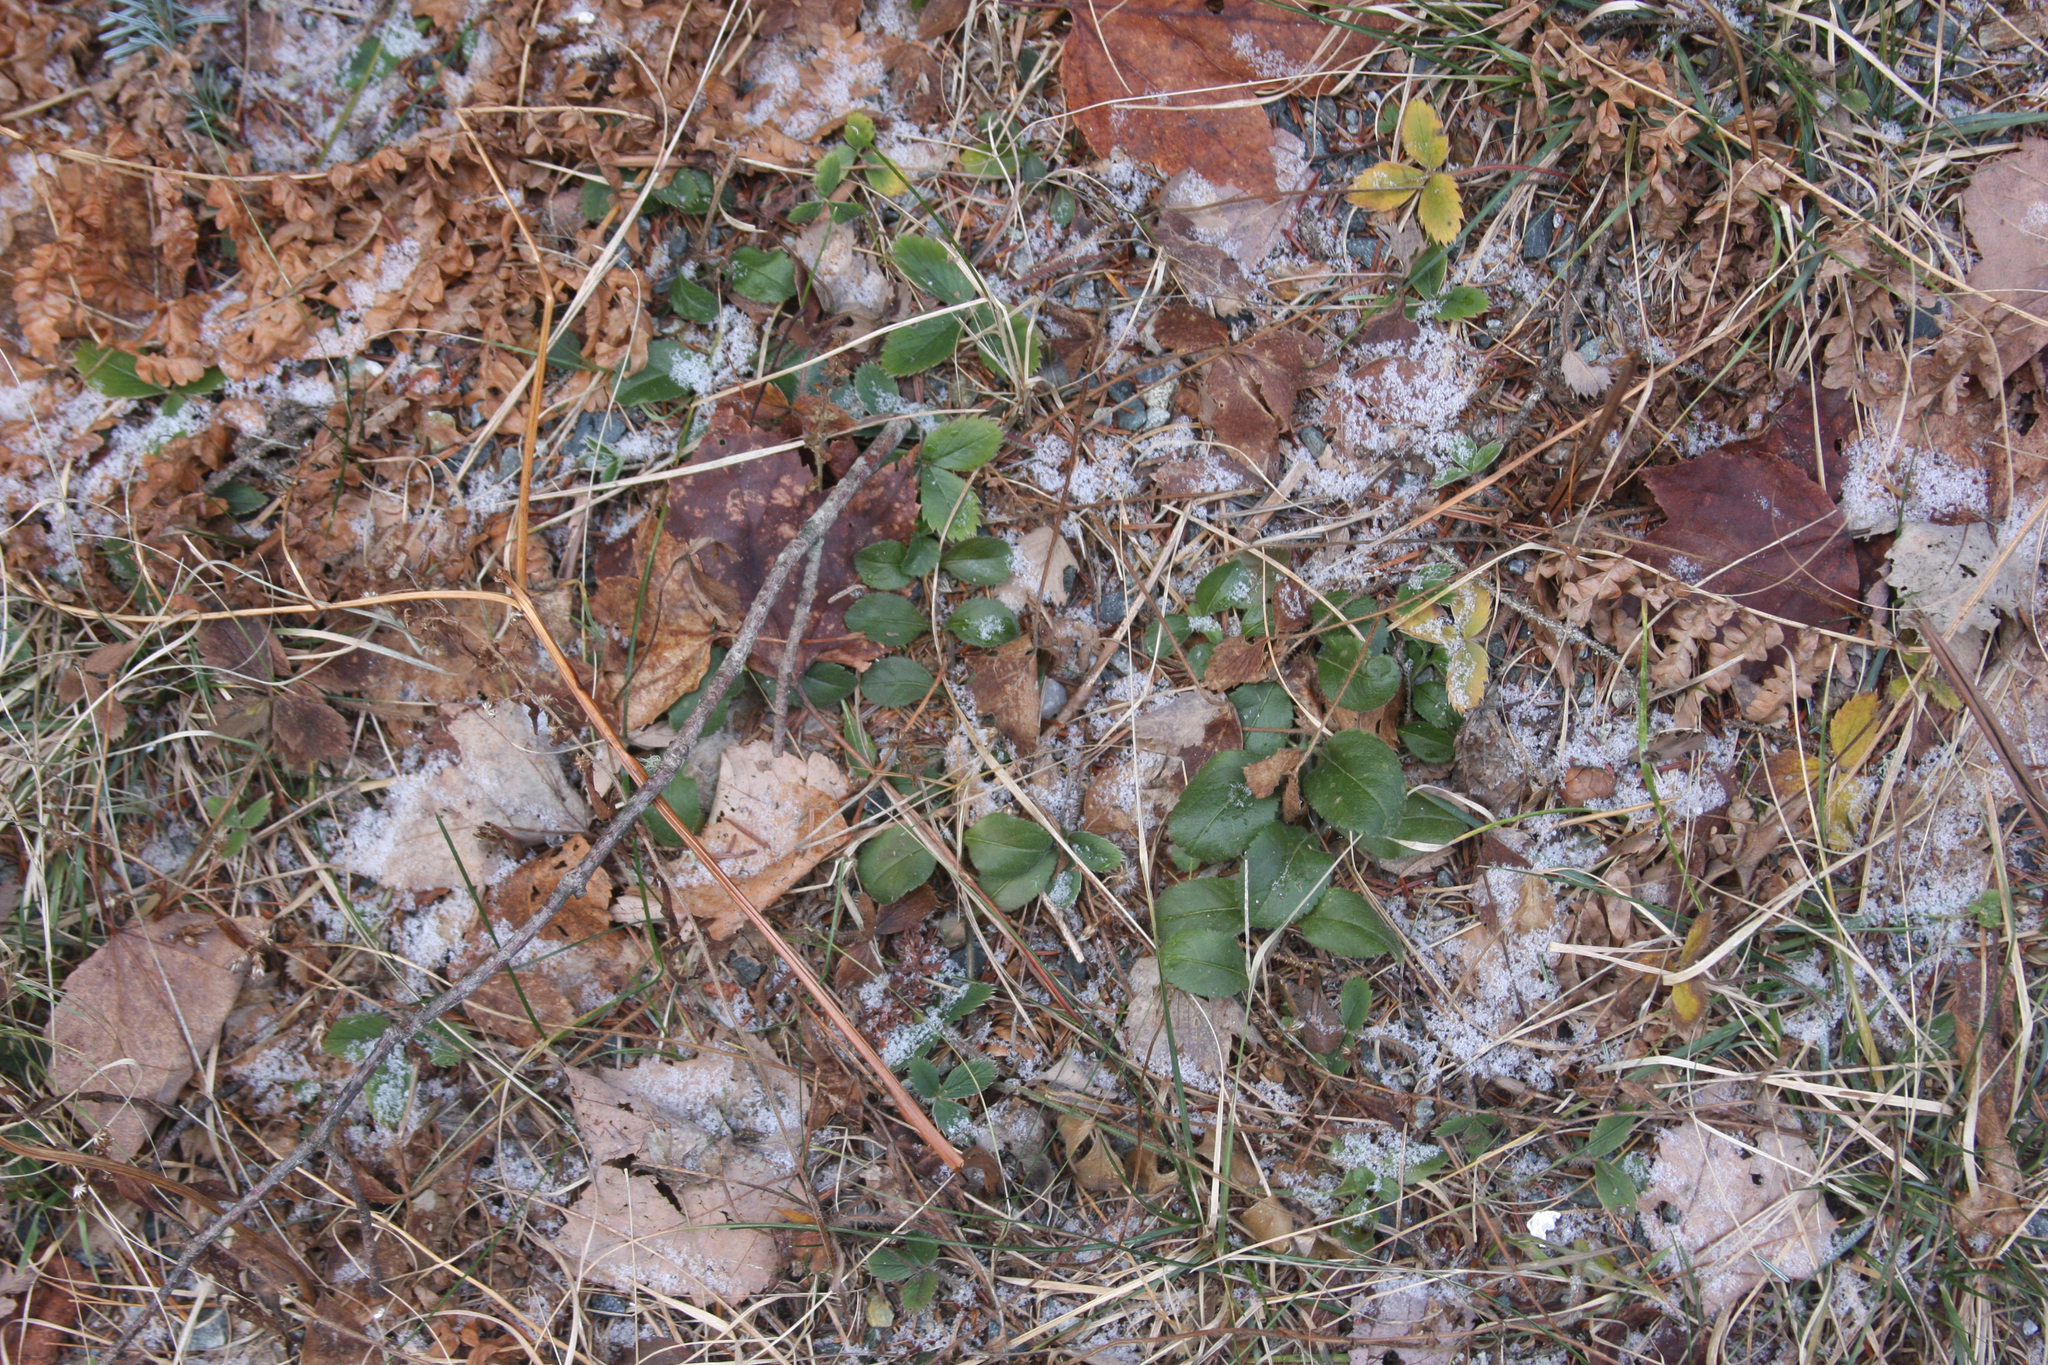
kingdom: Plantae
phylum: Tracheophyta
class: Magnoliopsida
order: Lamiales
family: Plantaginaceae
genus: Veronica
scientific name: Veronica officinalis
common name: Common speedwell
